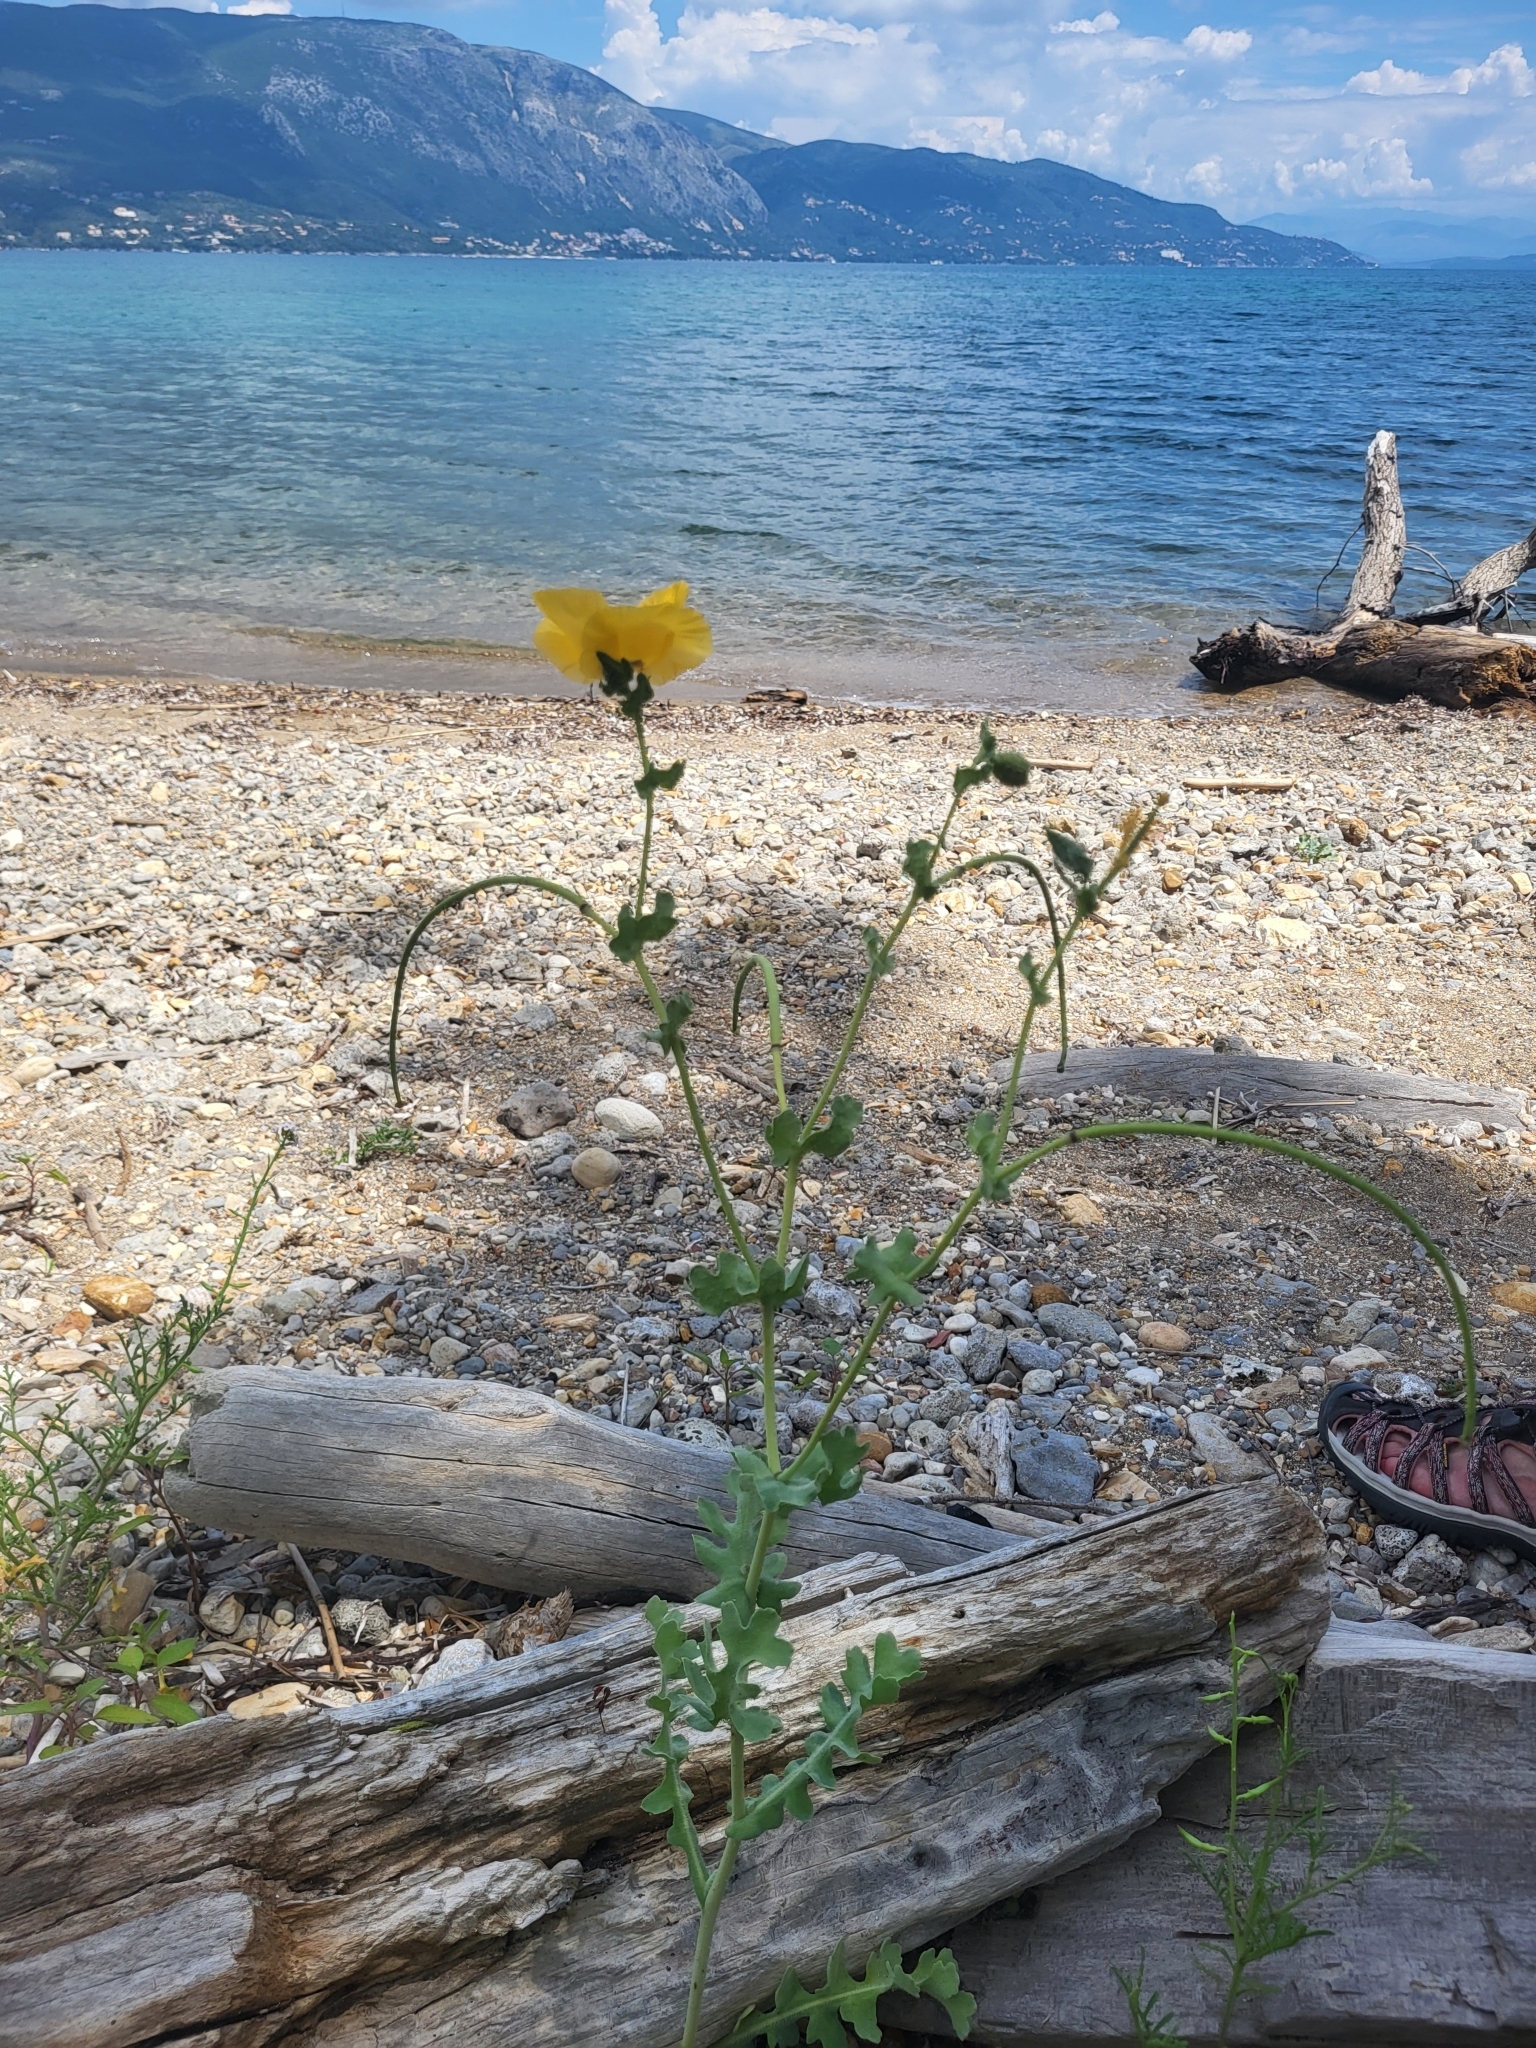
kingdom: Plantae
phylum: Tracheophyta
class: Magnoliopsida
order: Ranunculales
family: Papaveraceae
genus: Glaucium
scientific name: Glaucium flavum
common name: Yellow horned-poppy
